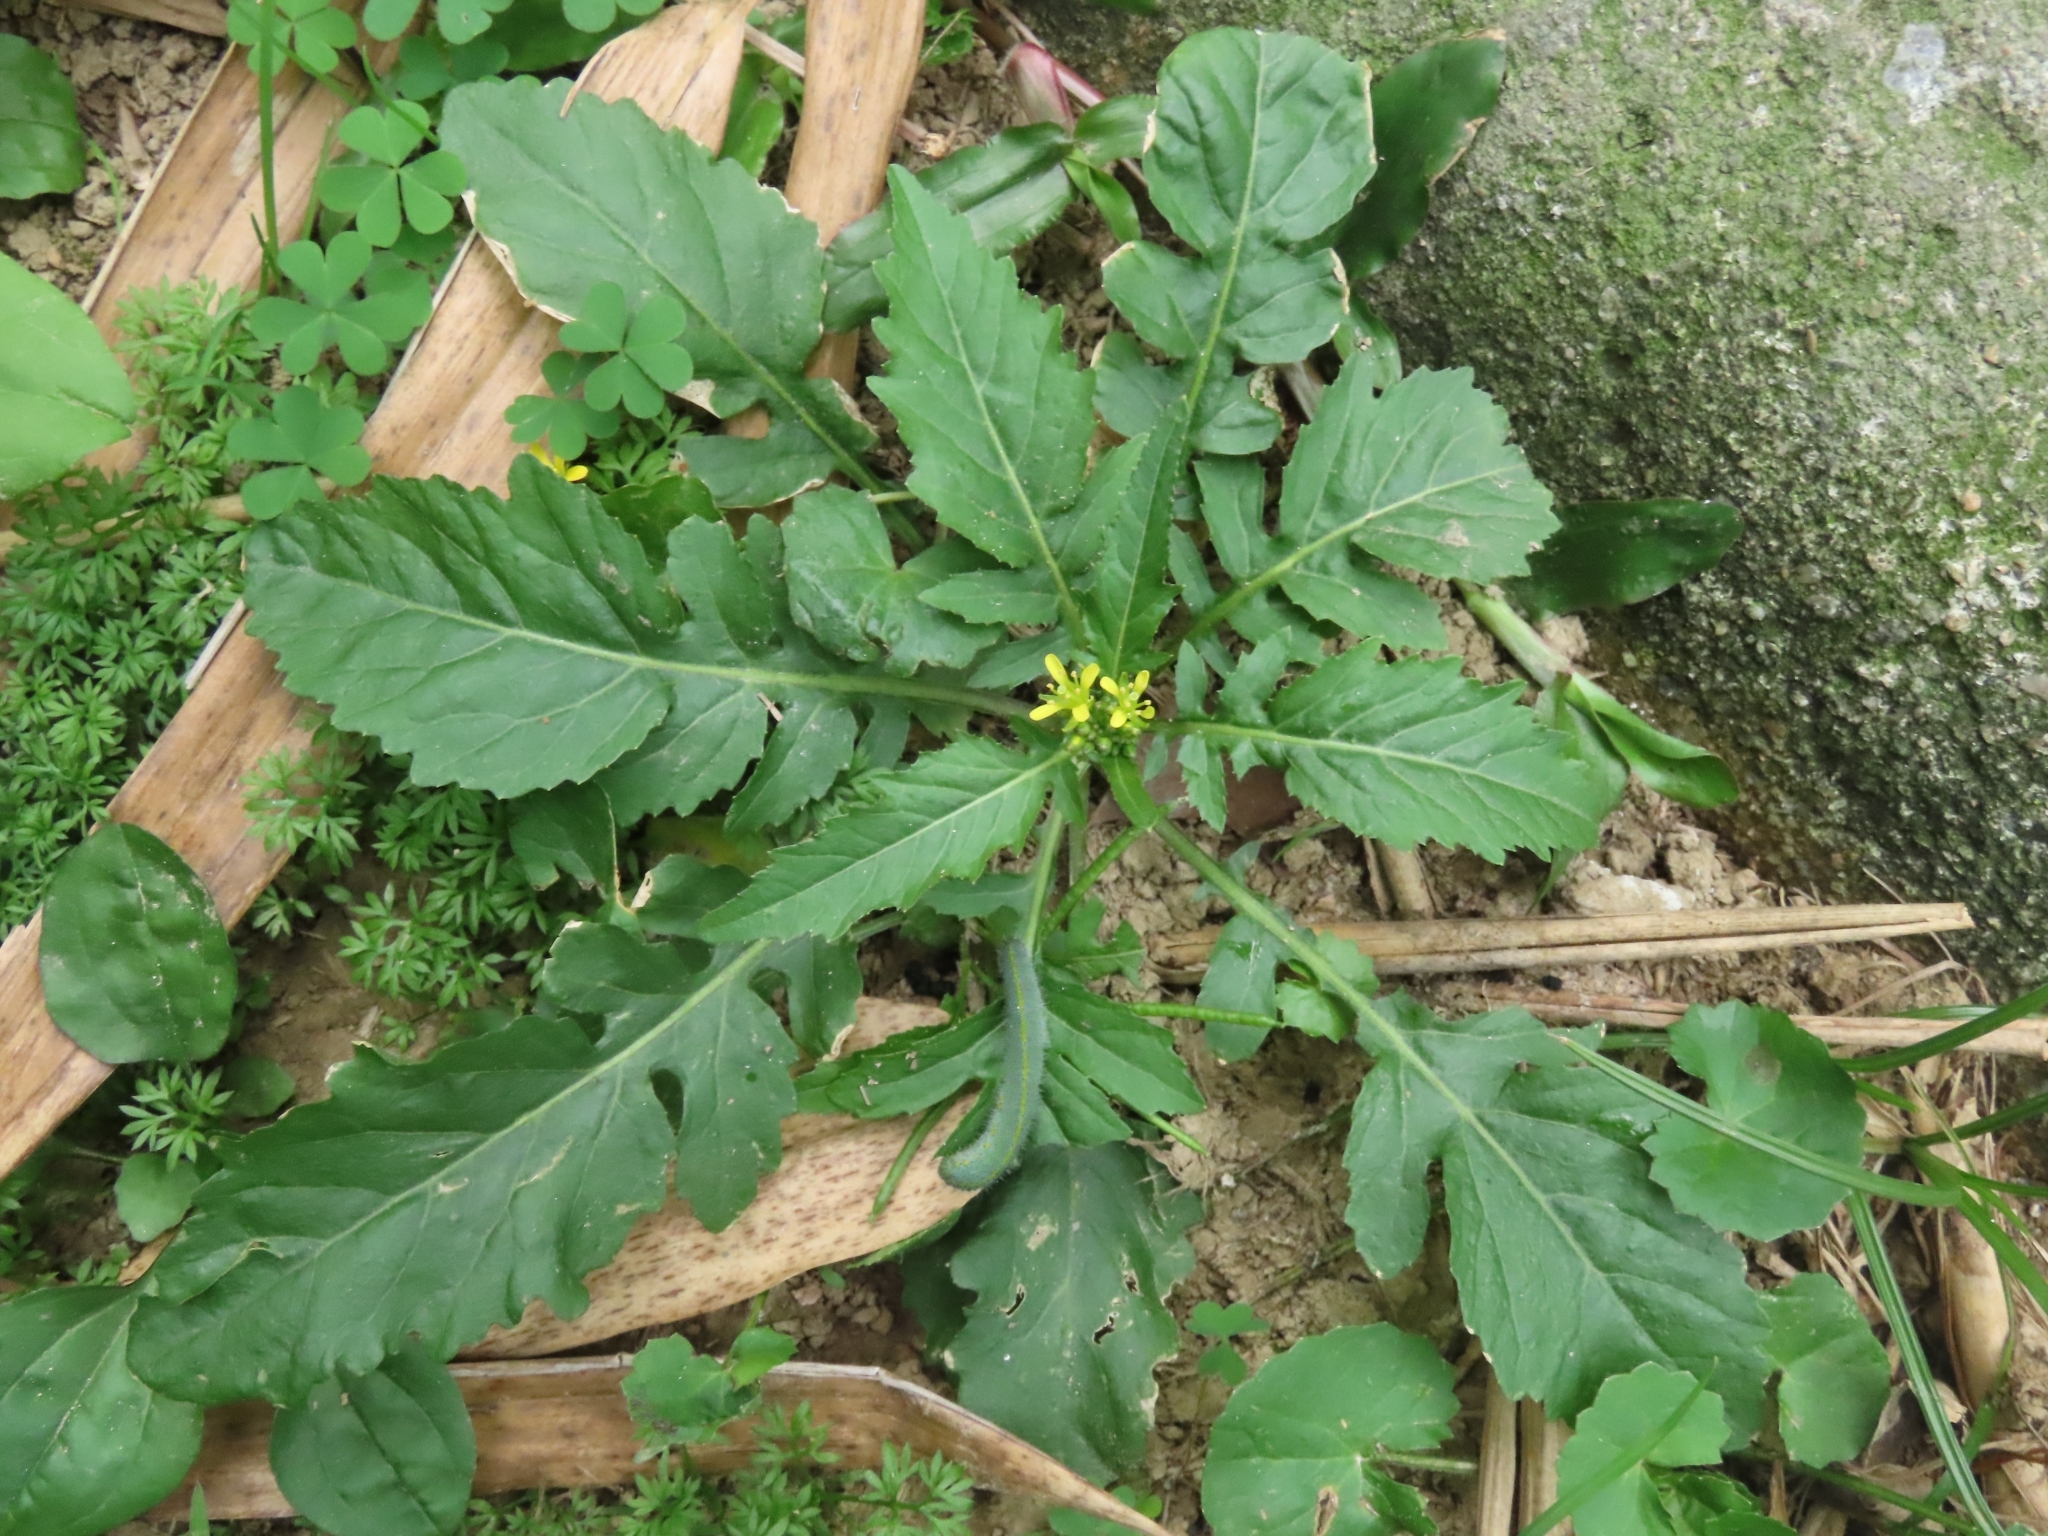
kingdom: Plantae
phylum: Tracheophyta
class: Magnoliopsida
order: Brassicales
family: Brassicaceae
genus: Rorippa
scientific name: Rorippa indica
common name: Variableleaf yellowcress
